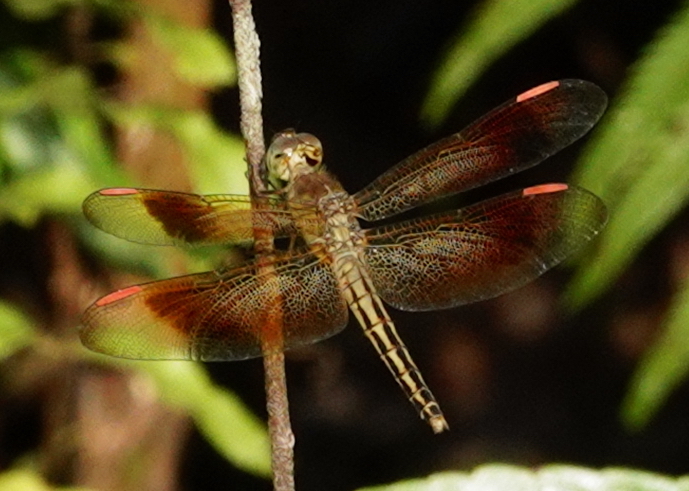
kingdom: Animalia
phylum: Arthropoda
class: Insecta
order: Odonata
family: Libellulidae
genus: Neurothemis
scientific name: Neurothemis manadensis
